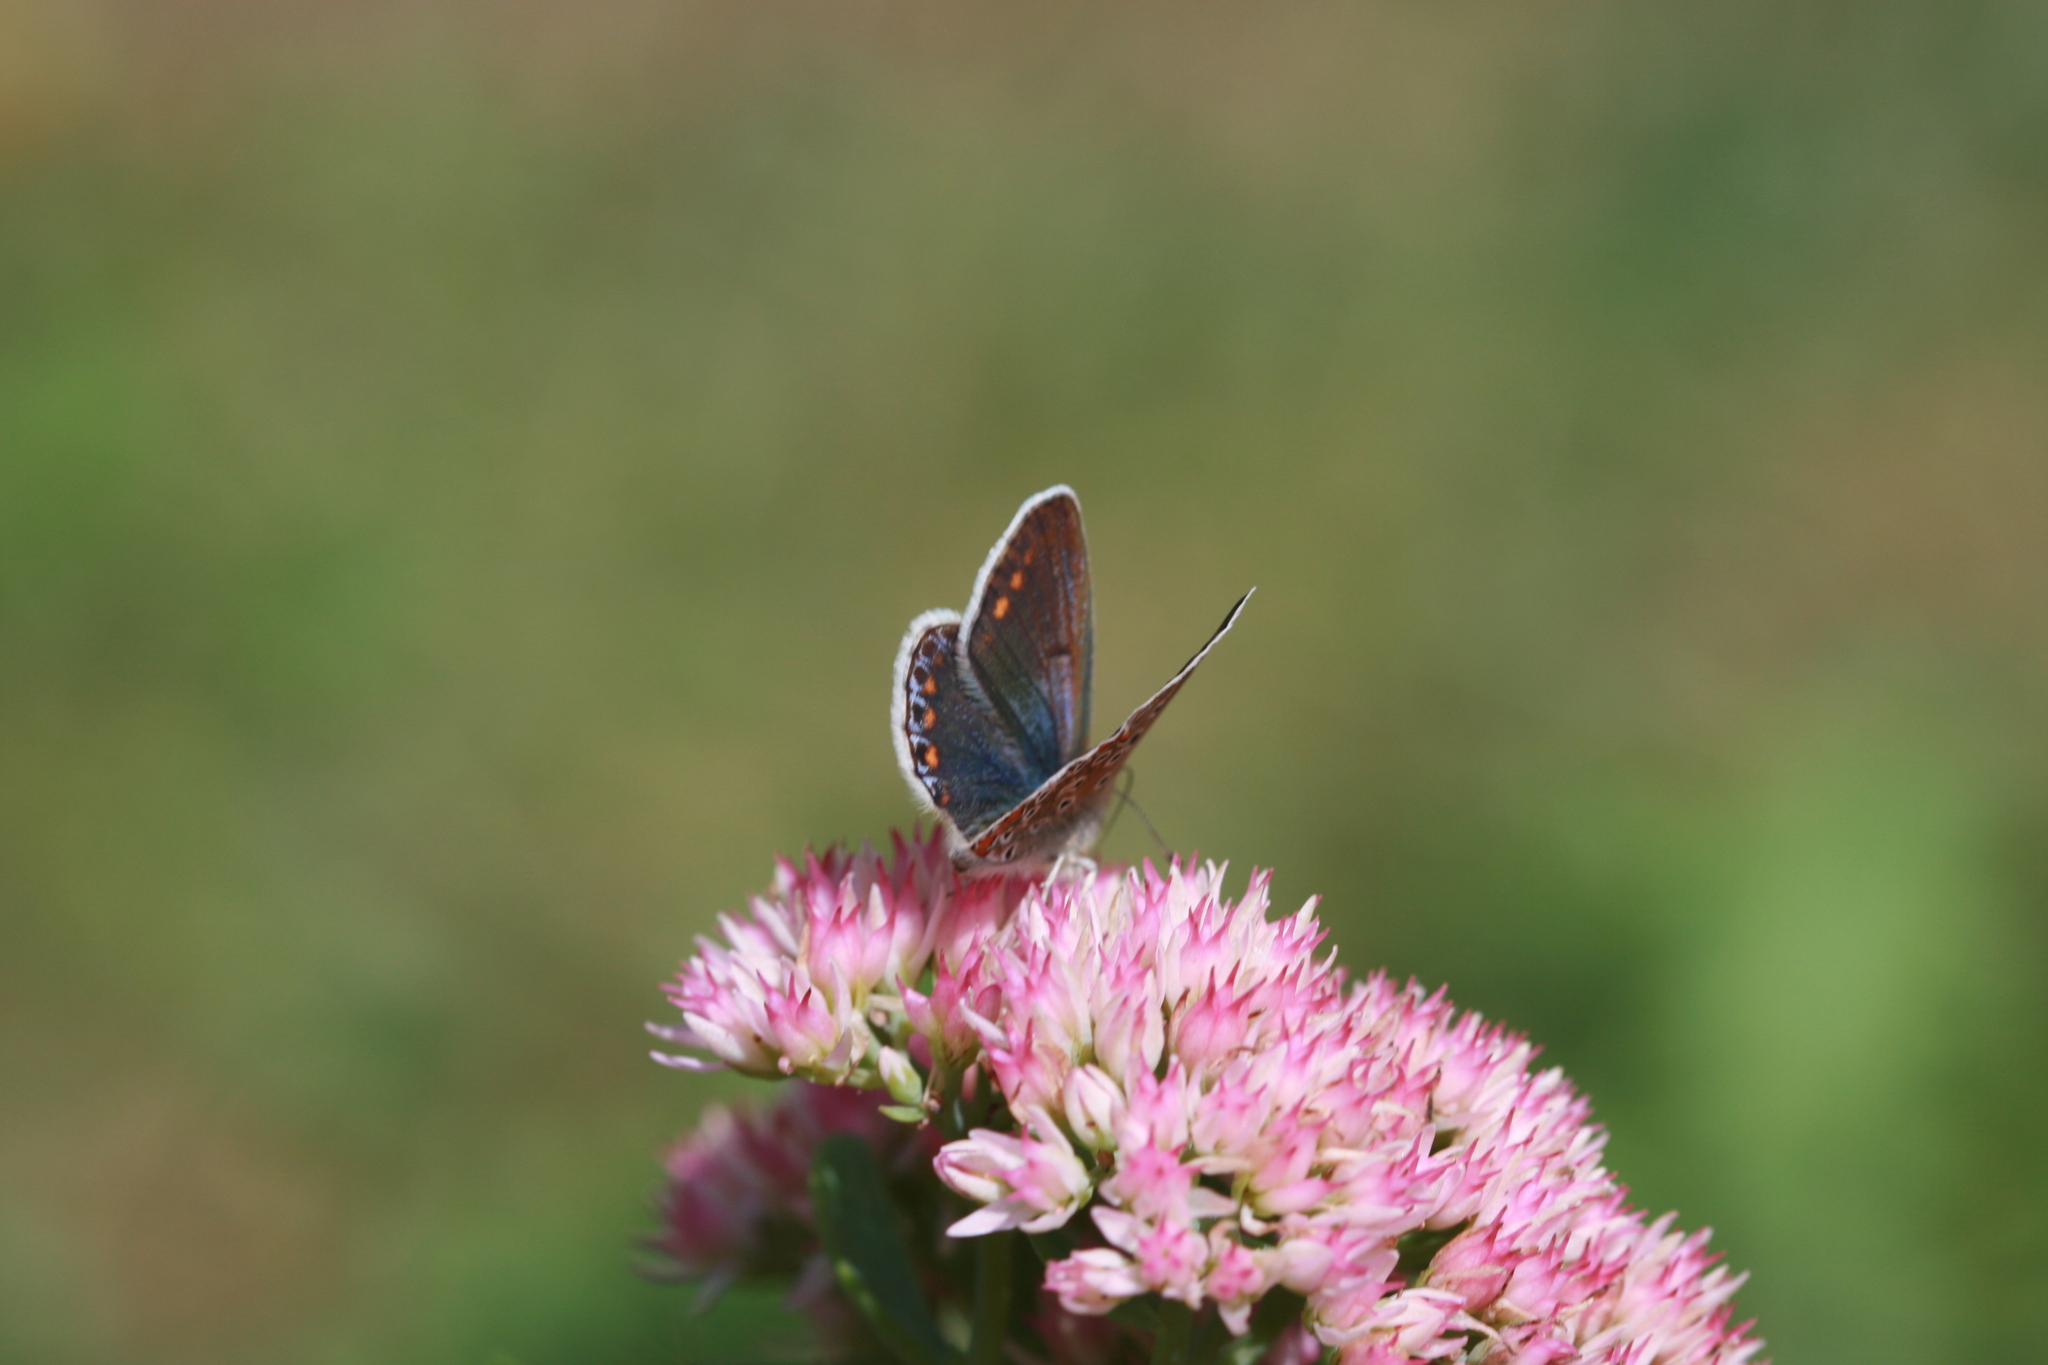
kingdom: Animalia
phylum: Arthropoda
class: Insecta
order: Lepidoptera
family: Lycaenidae
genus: Polyommatus
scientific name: Polyommatus icarus
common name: Common blue
